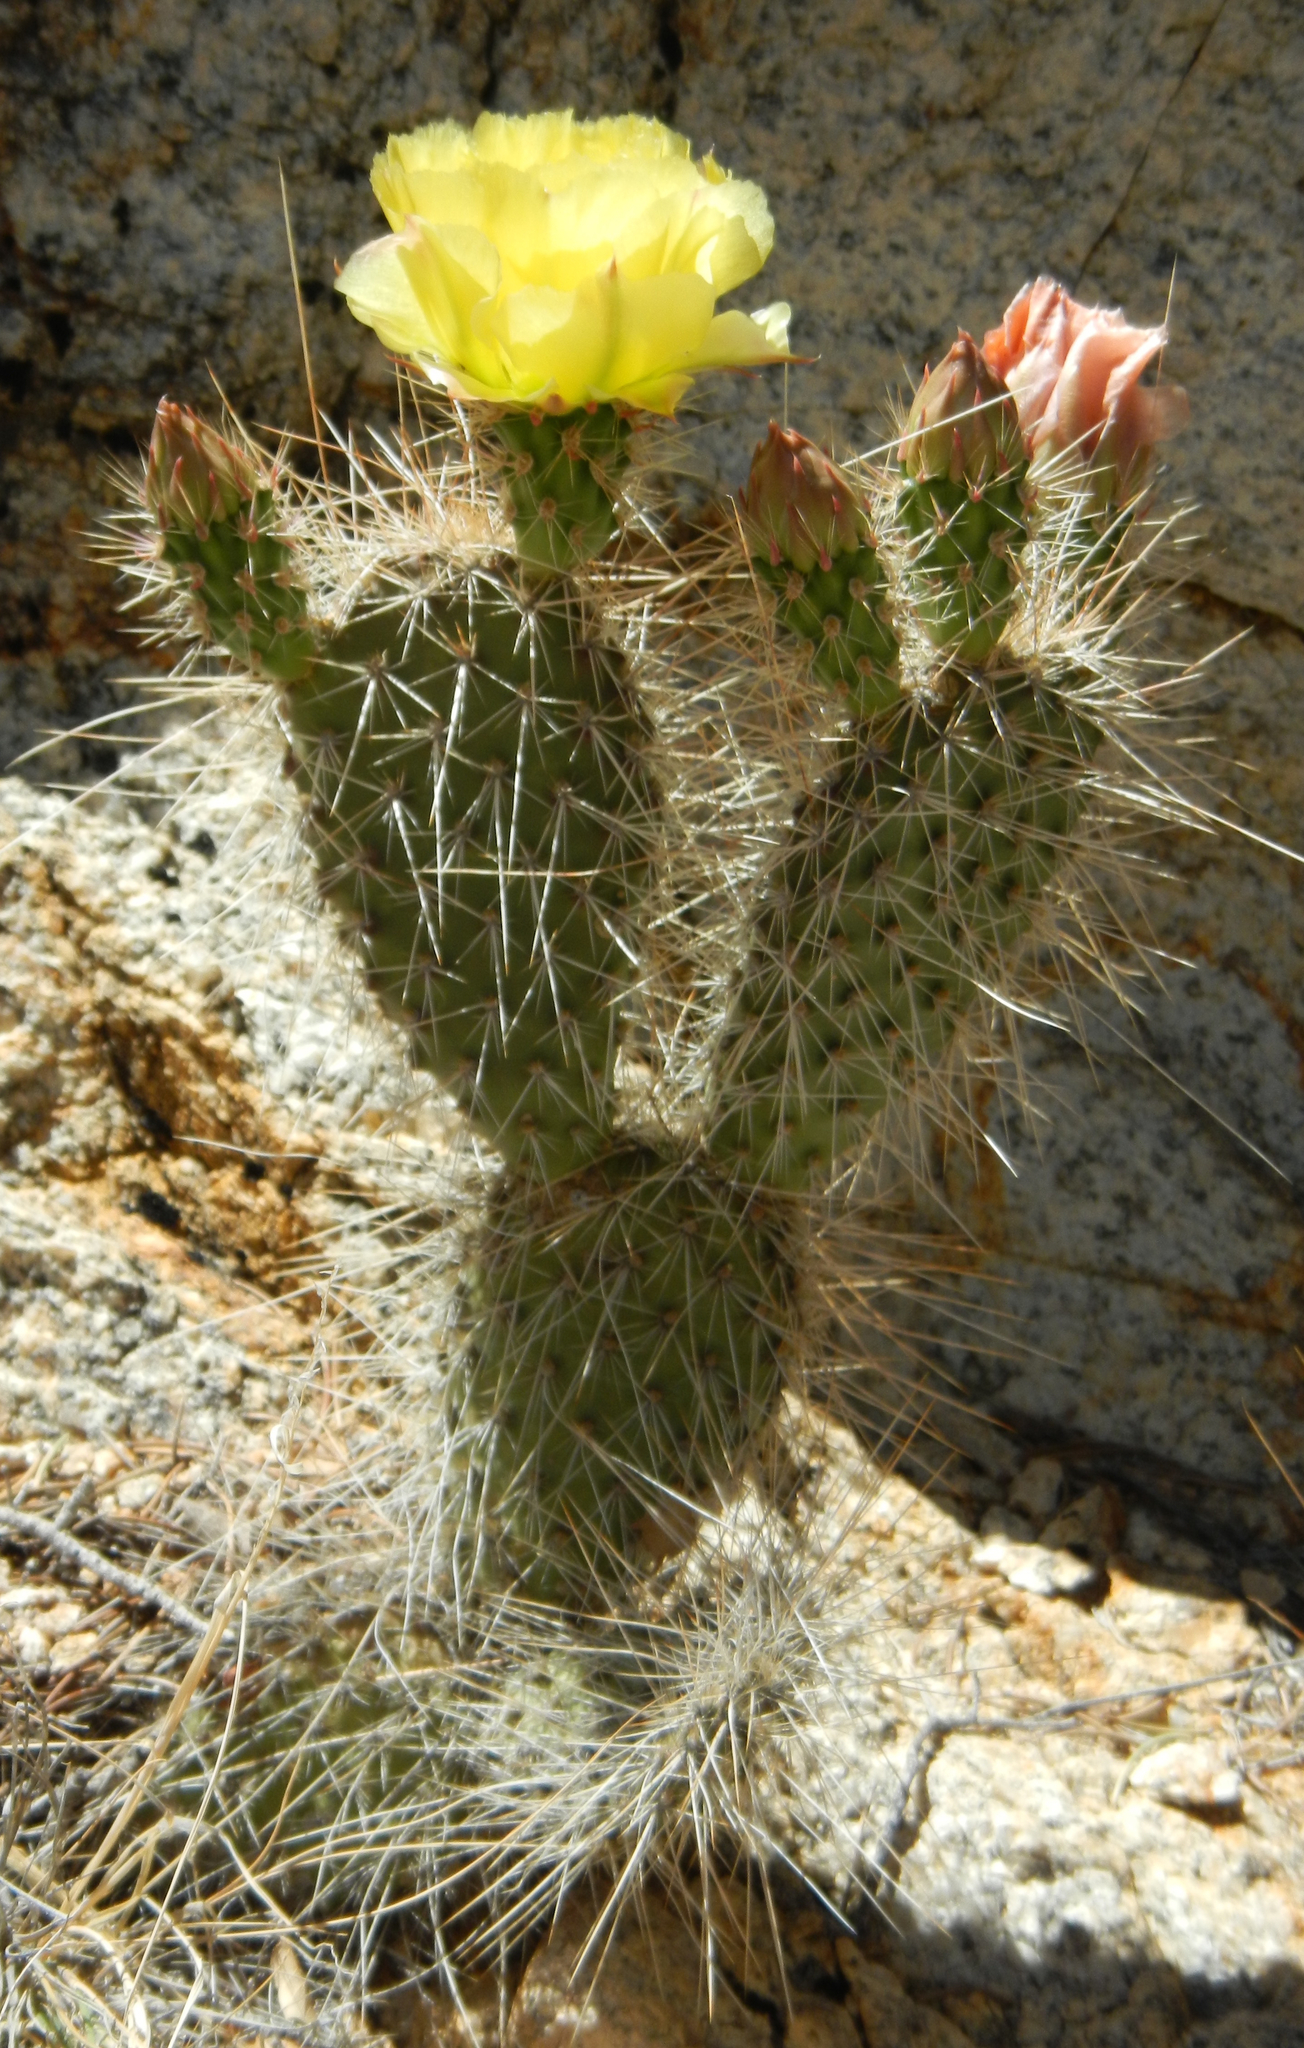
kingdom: Plantae
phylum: Tracheophyta
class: Magnoliopsida
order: Caryophyllales
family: Cactaceae
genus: Opuntia
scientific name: Opuntia polyacantha
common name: Plains prickly-pear
